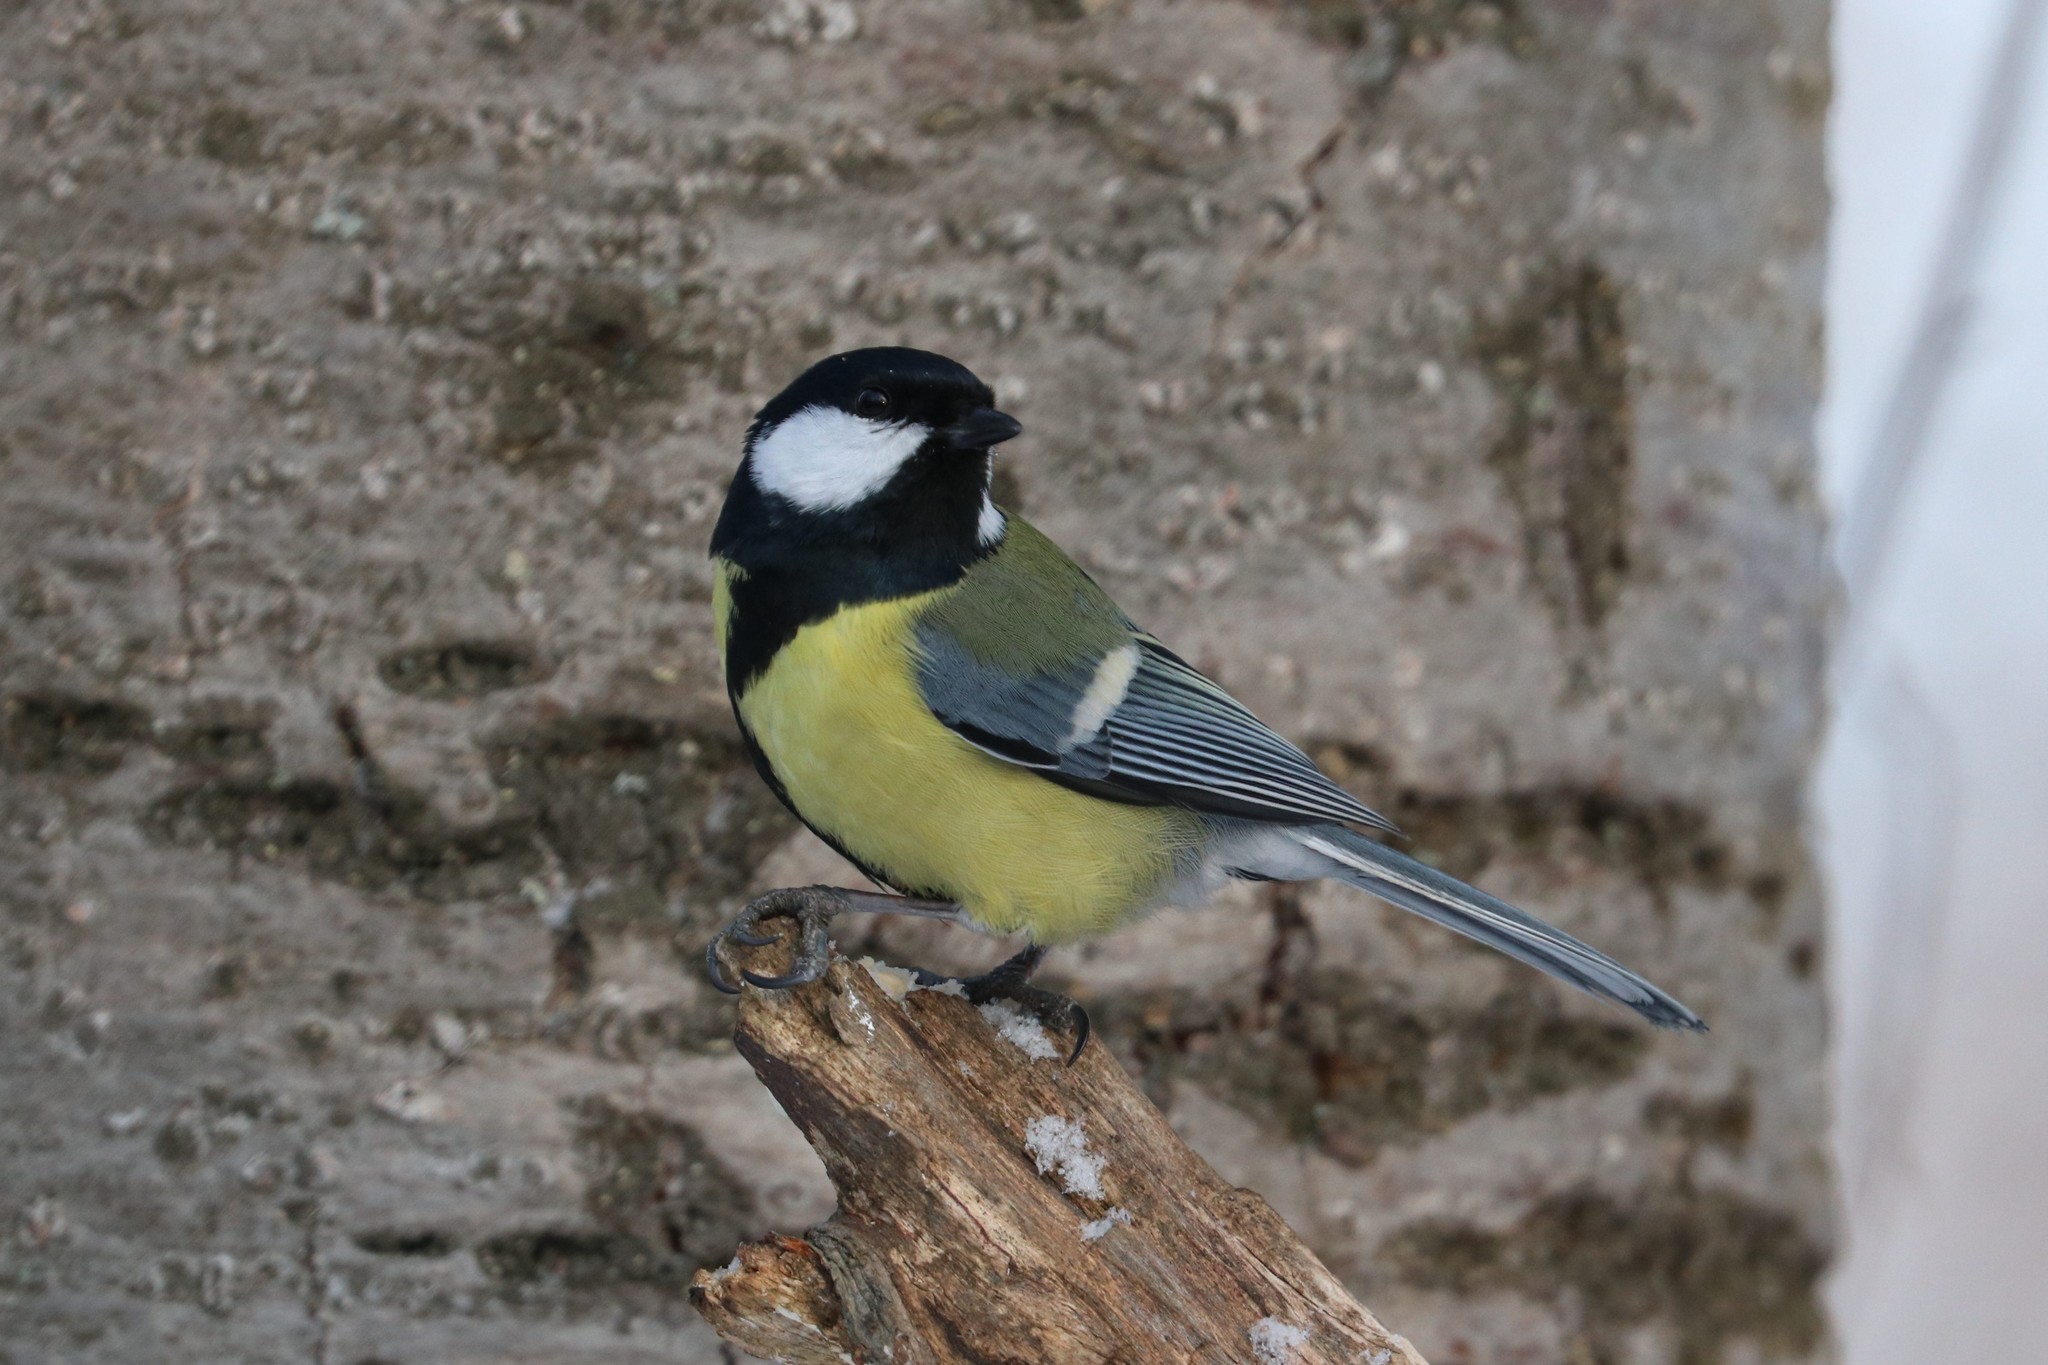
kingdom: Animalia
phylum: Chordata
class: Aves
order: Passeriformes
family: Paridae
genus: Parus
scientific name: Parus major
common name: Great tit
